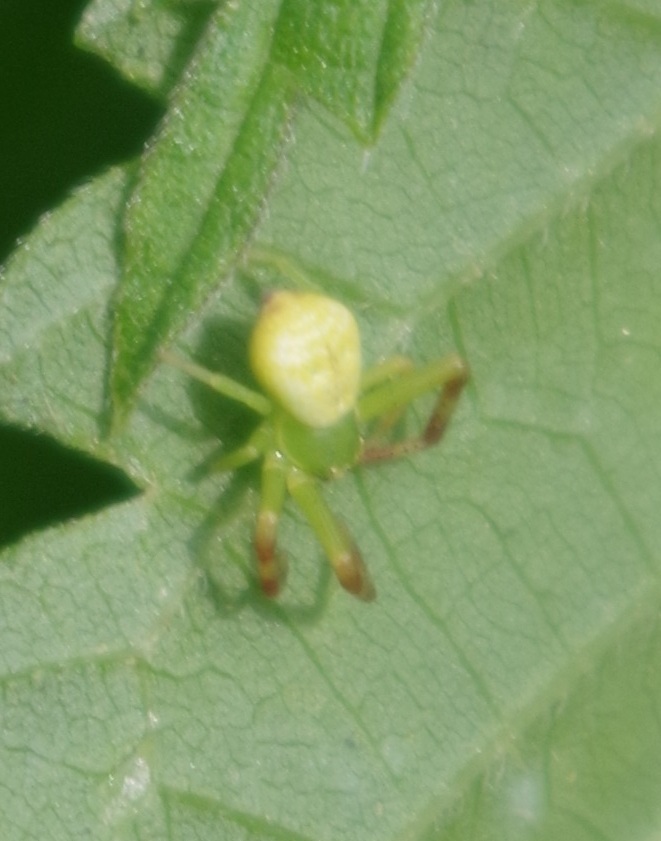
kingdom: Animalia
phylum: Arthropoda
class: Arachnida
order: Araneae
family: Thomisidae
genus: Ebrechtella
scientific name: Ebrechtella tricuspidata
